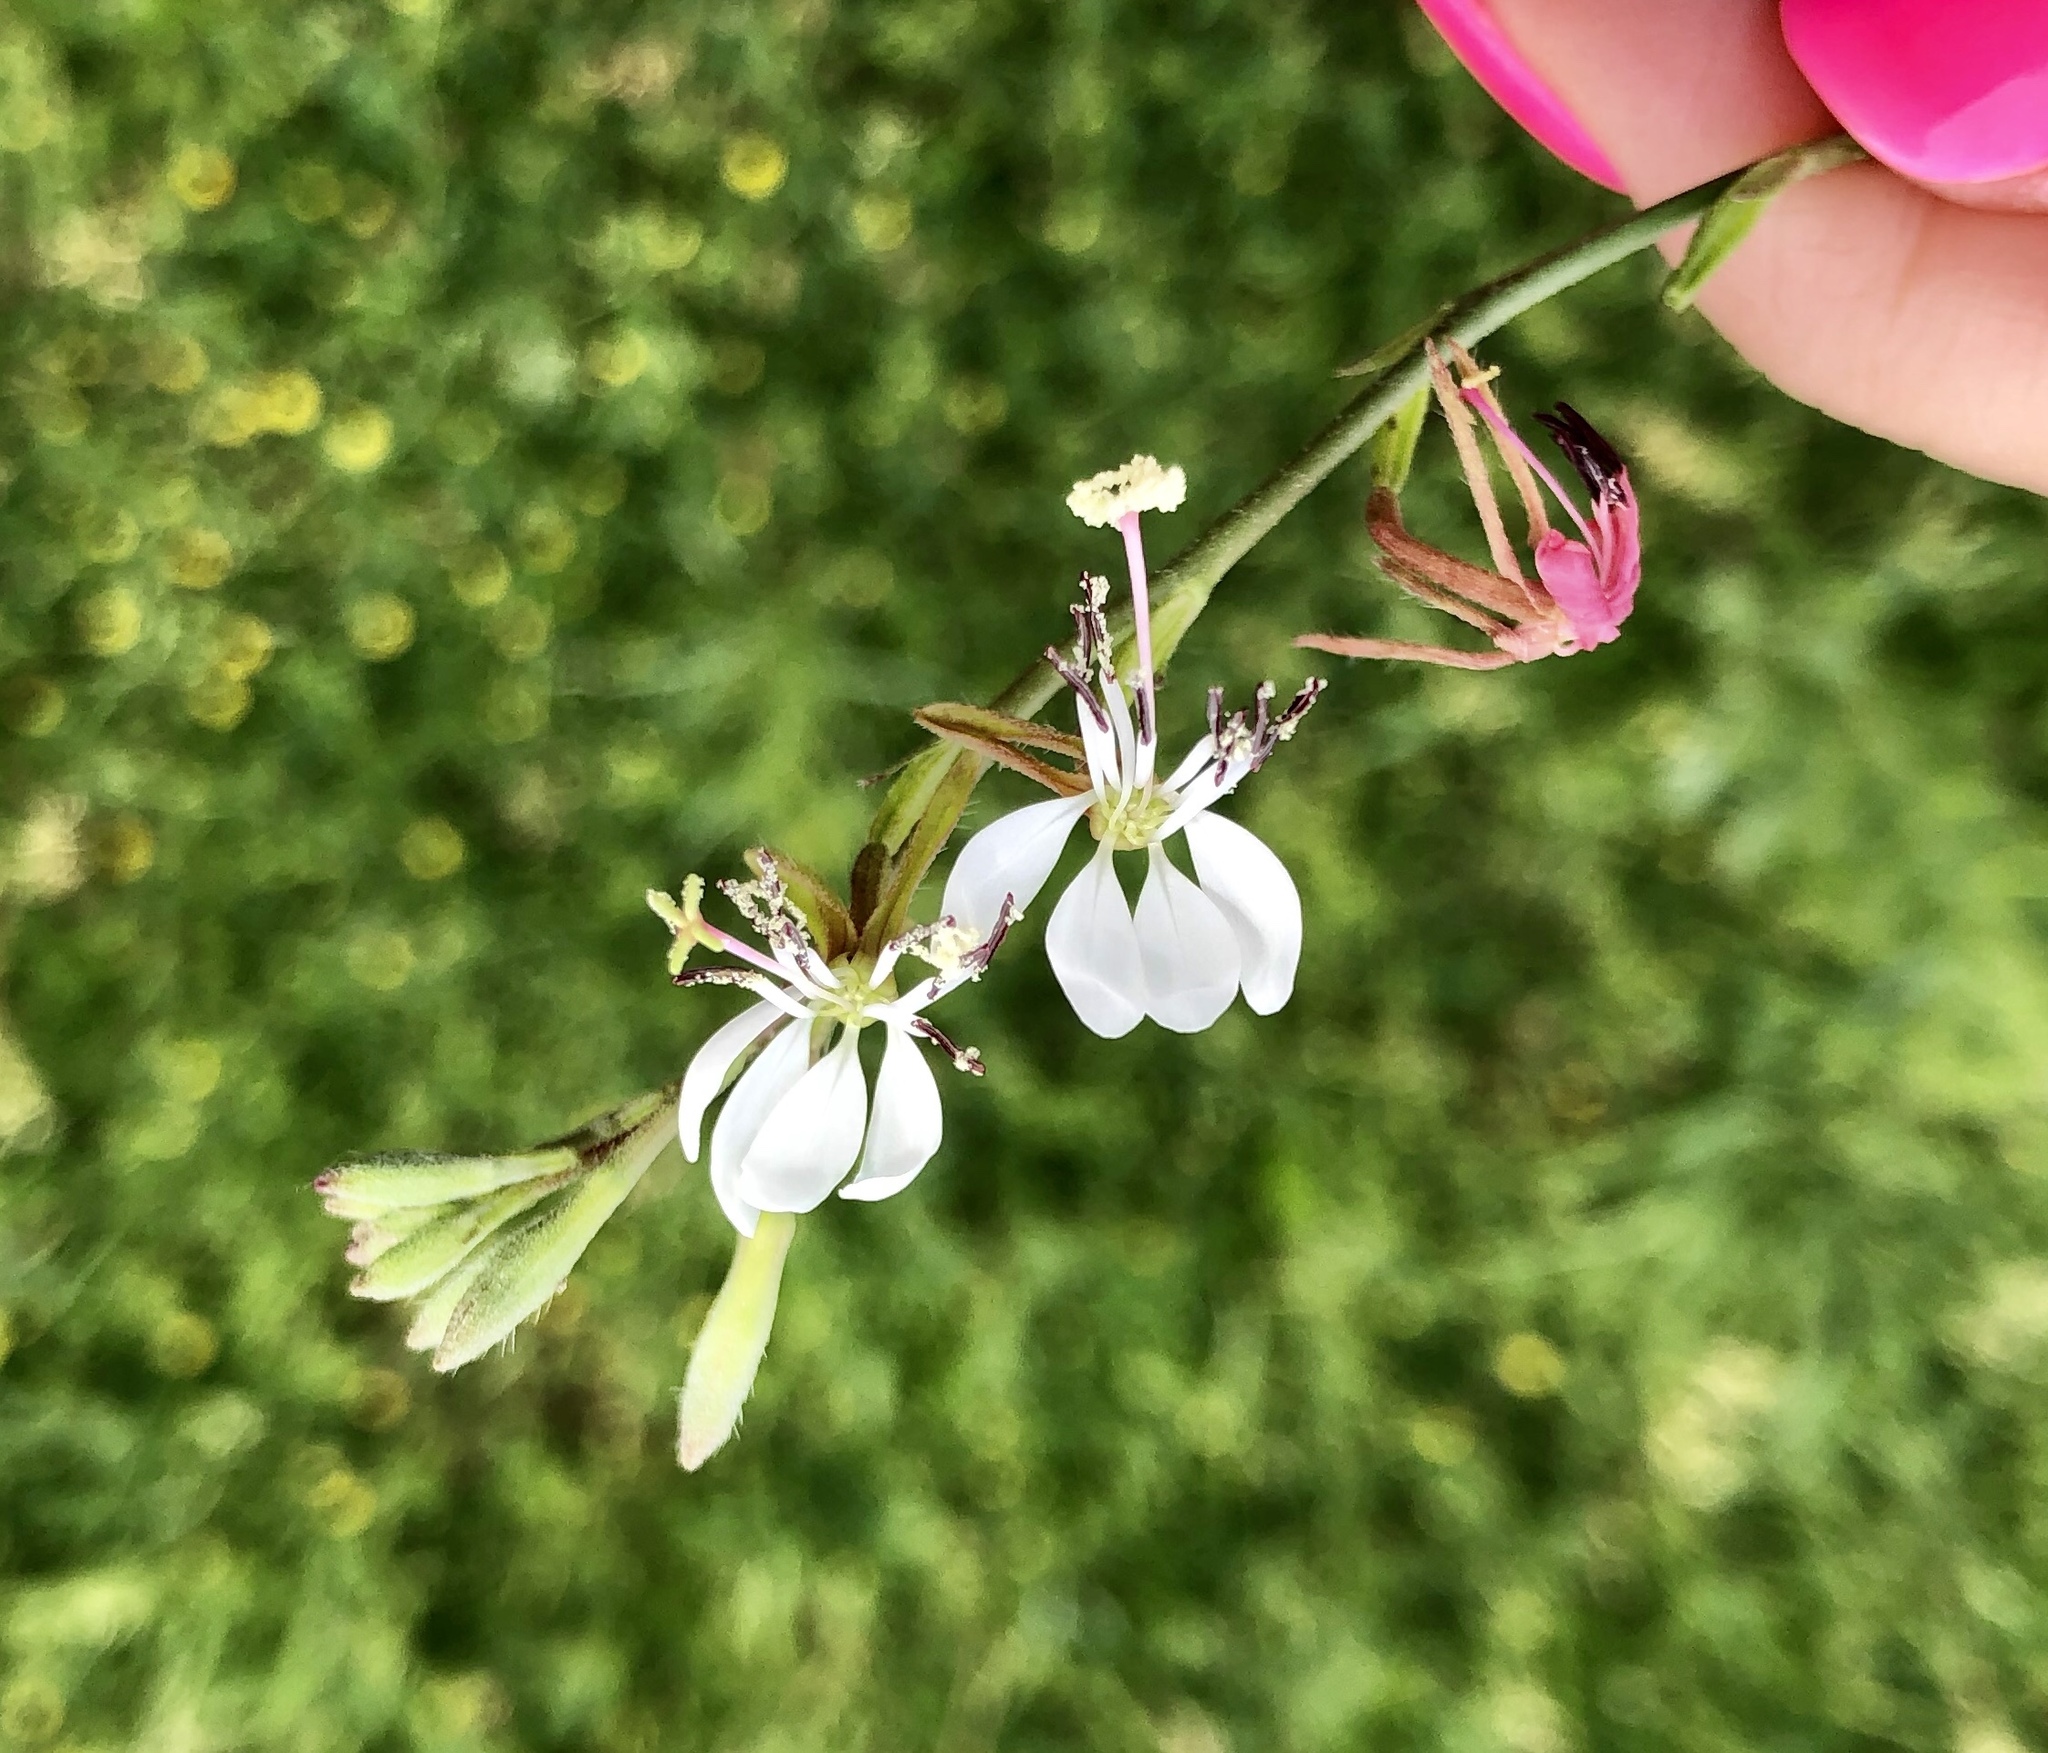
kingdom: Plantae
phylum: Tracheophyta
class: Magnoliopsida
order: Myrtales
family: Onagraceae
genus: Oenothera
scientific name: Oenothera suffulta
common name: Kisses
